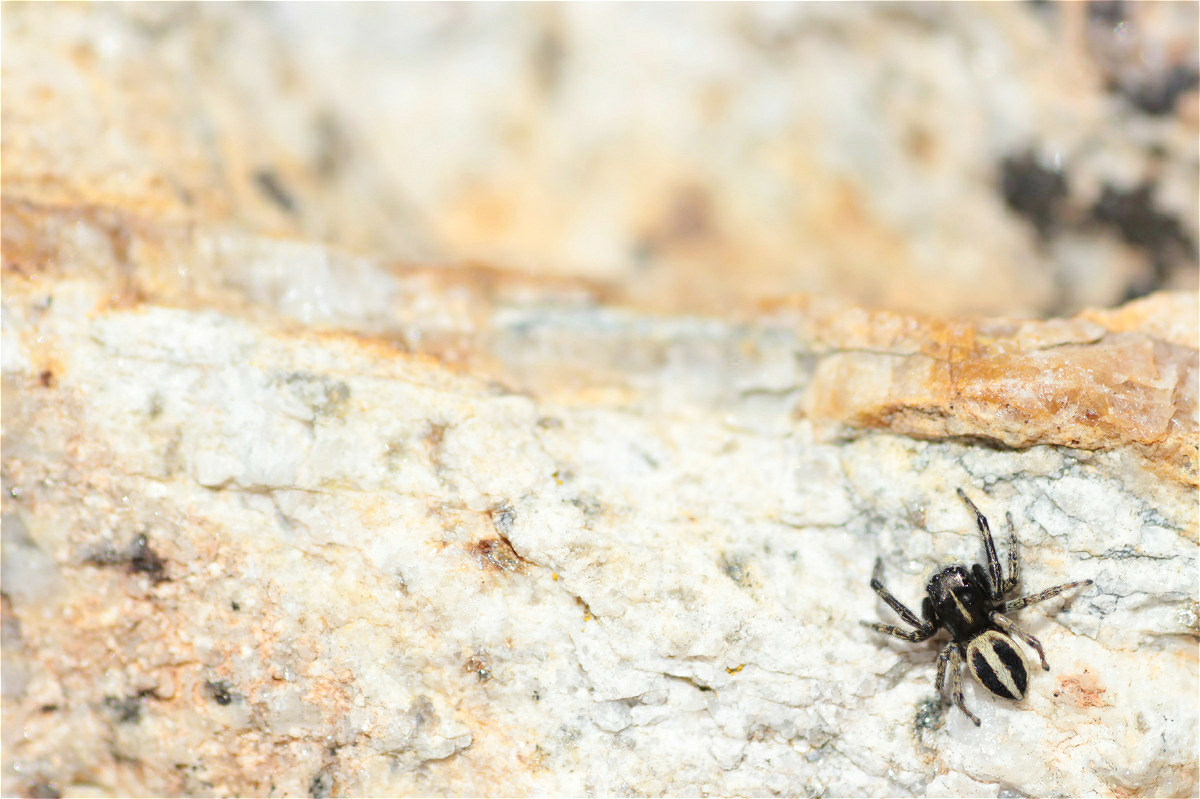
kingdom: Animalia
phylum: Arthropoda
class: Arachnida
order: Araneae
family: Salticidae
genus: Attulus
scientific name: Attulus longipes
